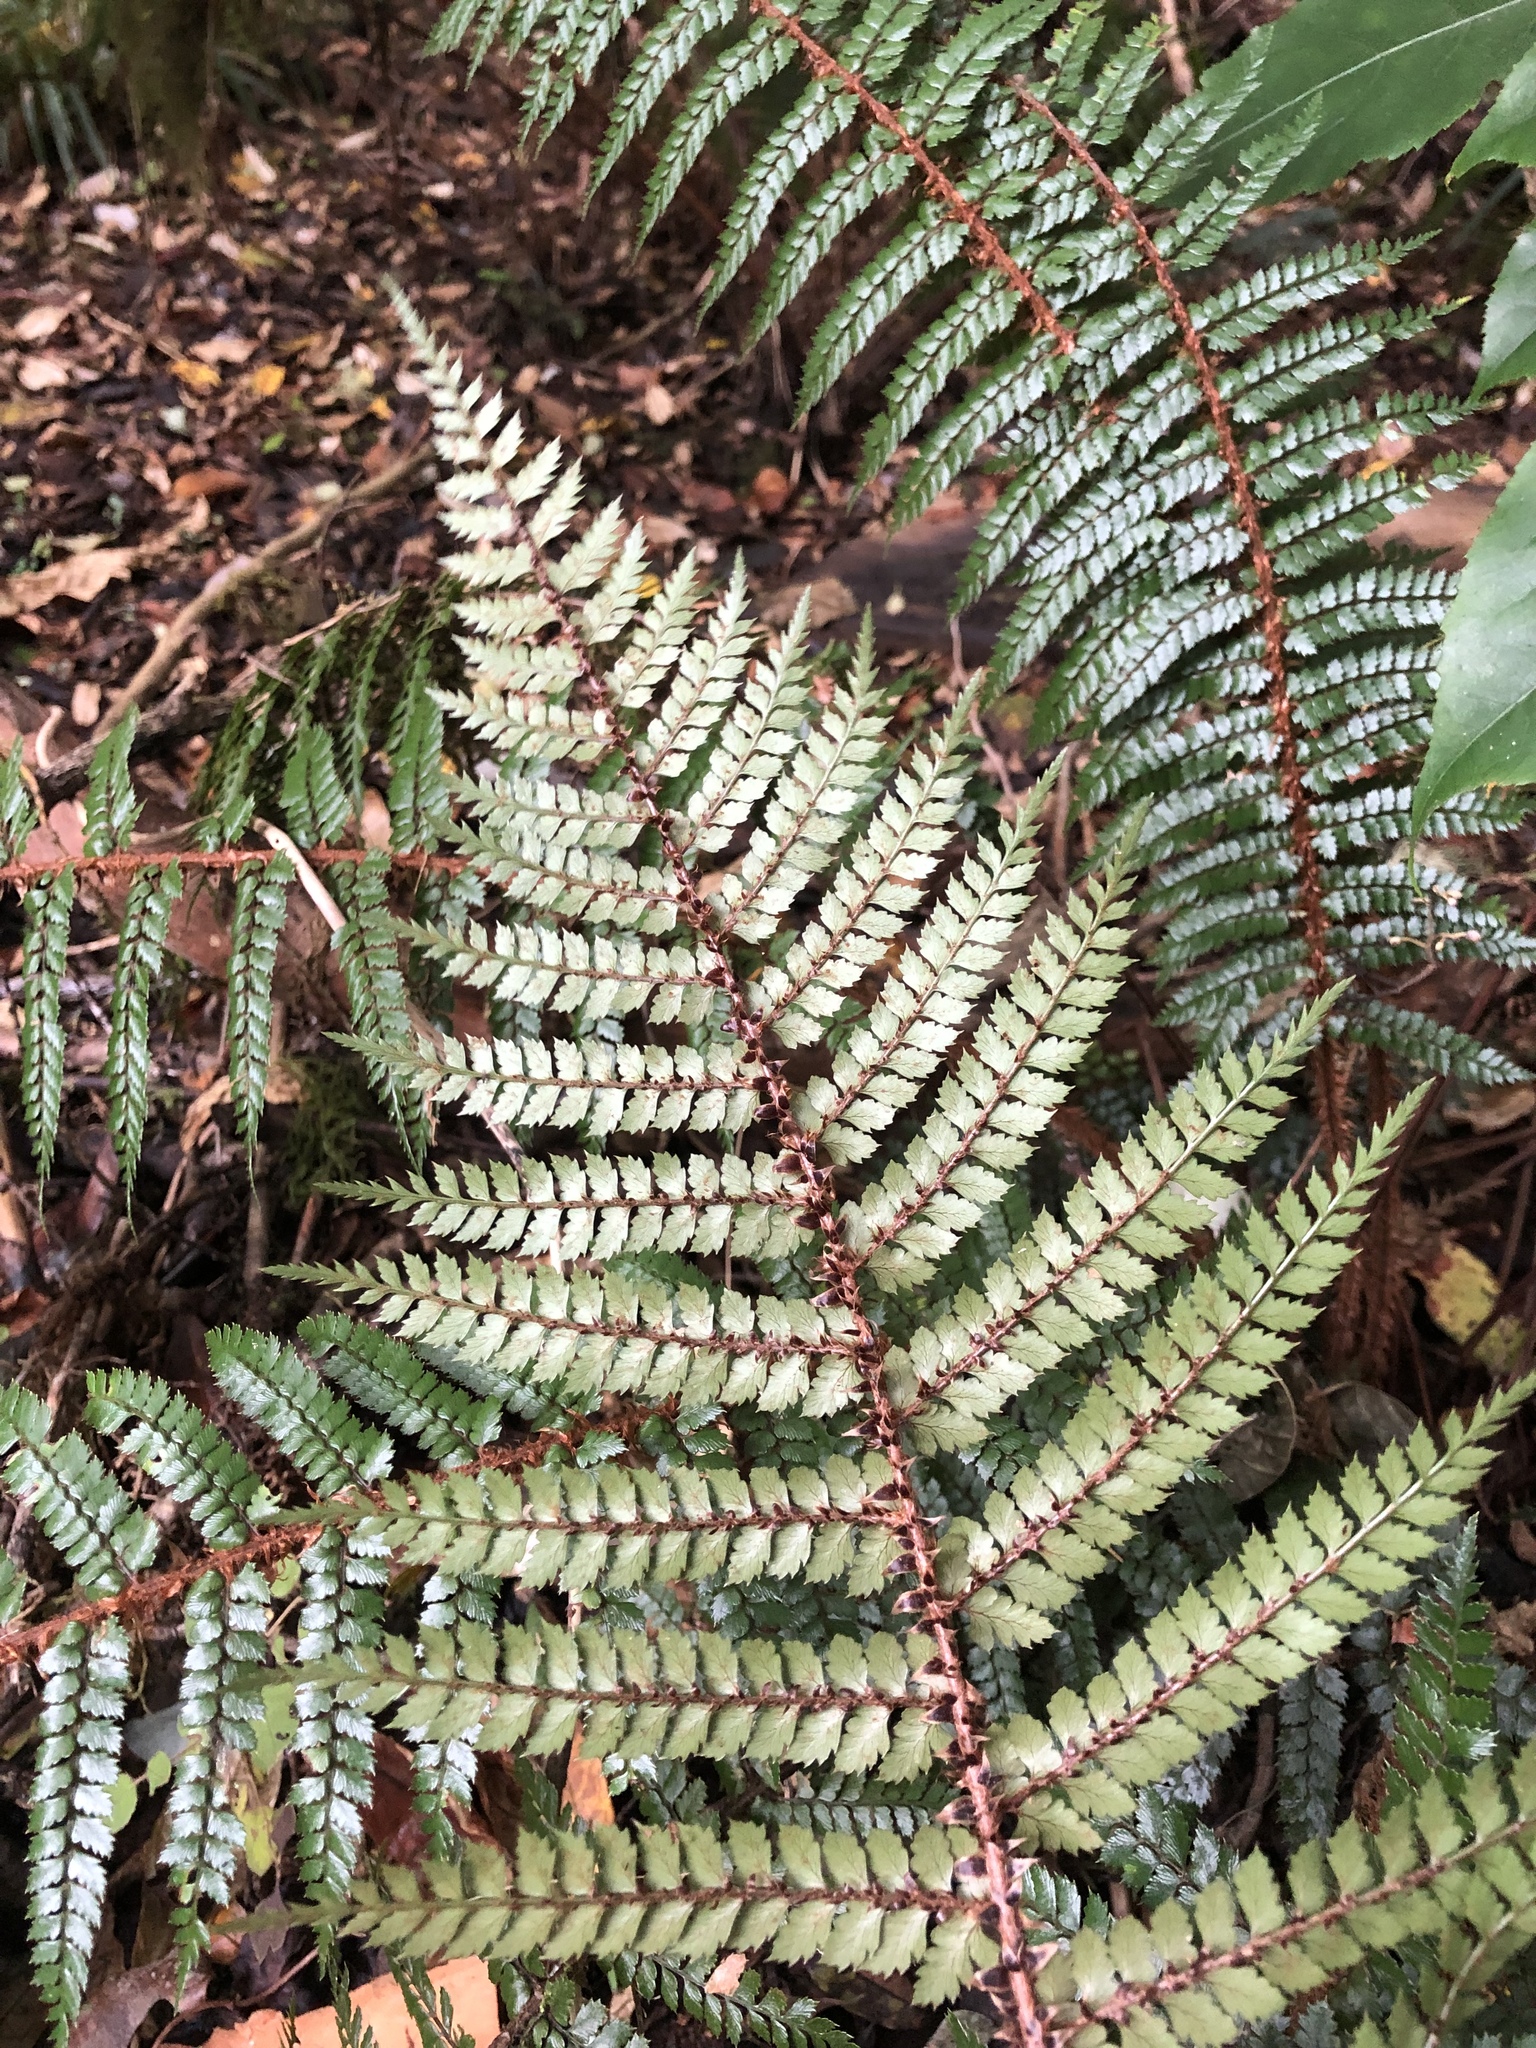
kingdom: Plantae
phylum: Tracheophyta
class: Polypodiopsida
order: Polypodiales
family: Dryopteridaceae
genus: Polystichum
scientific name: Polystichum vestitum
